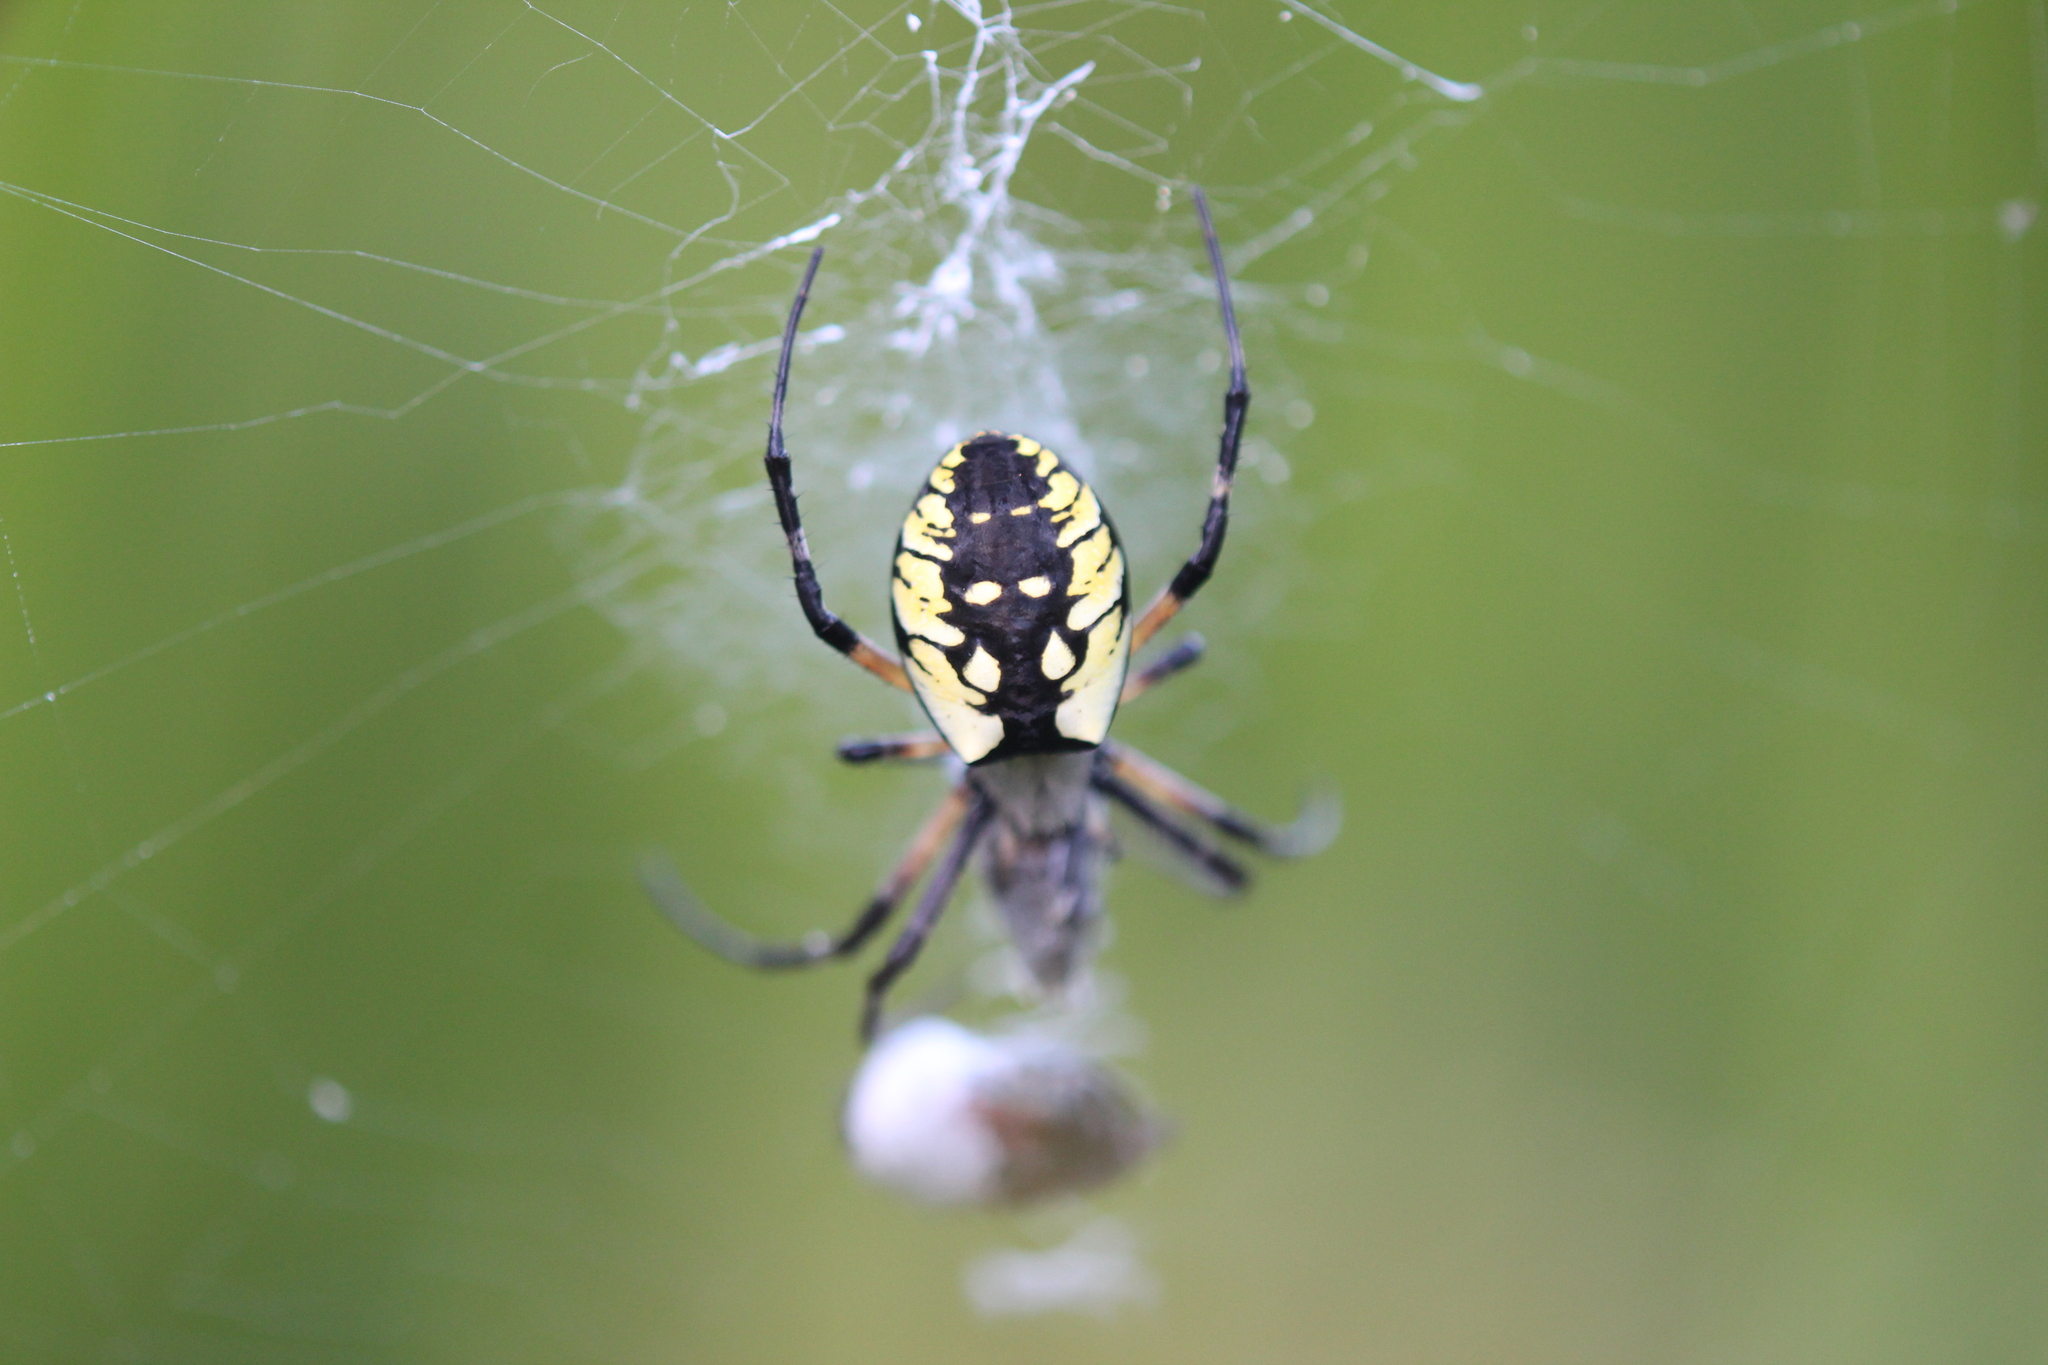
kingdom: Animalia
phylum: Arthropoda
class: Arachnida
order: Araneae
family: Araneidae
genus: Argiope
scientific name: Argiope aurantia
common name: Orb weavers
